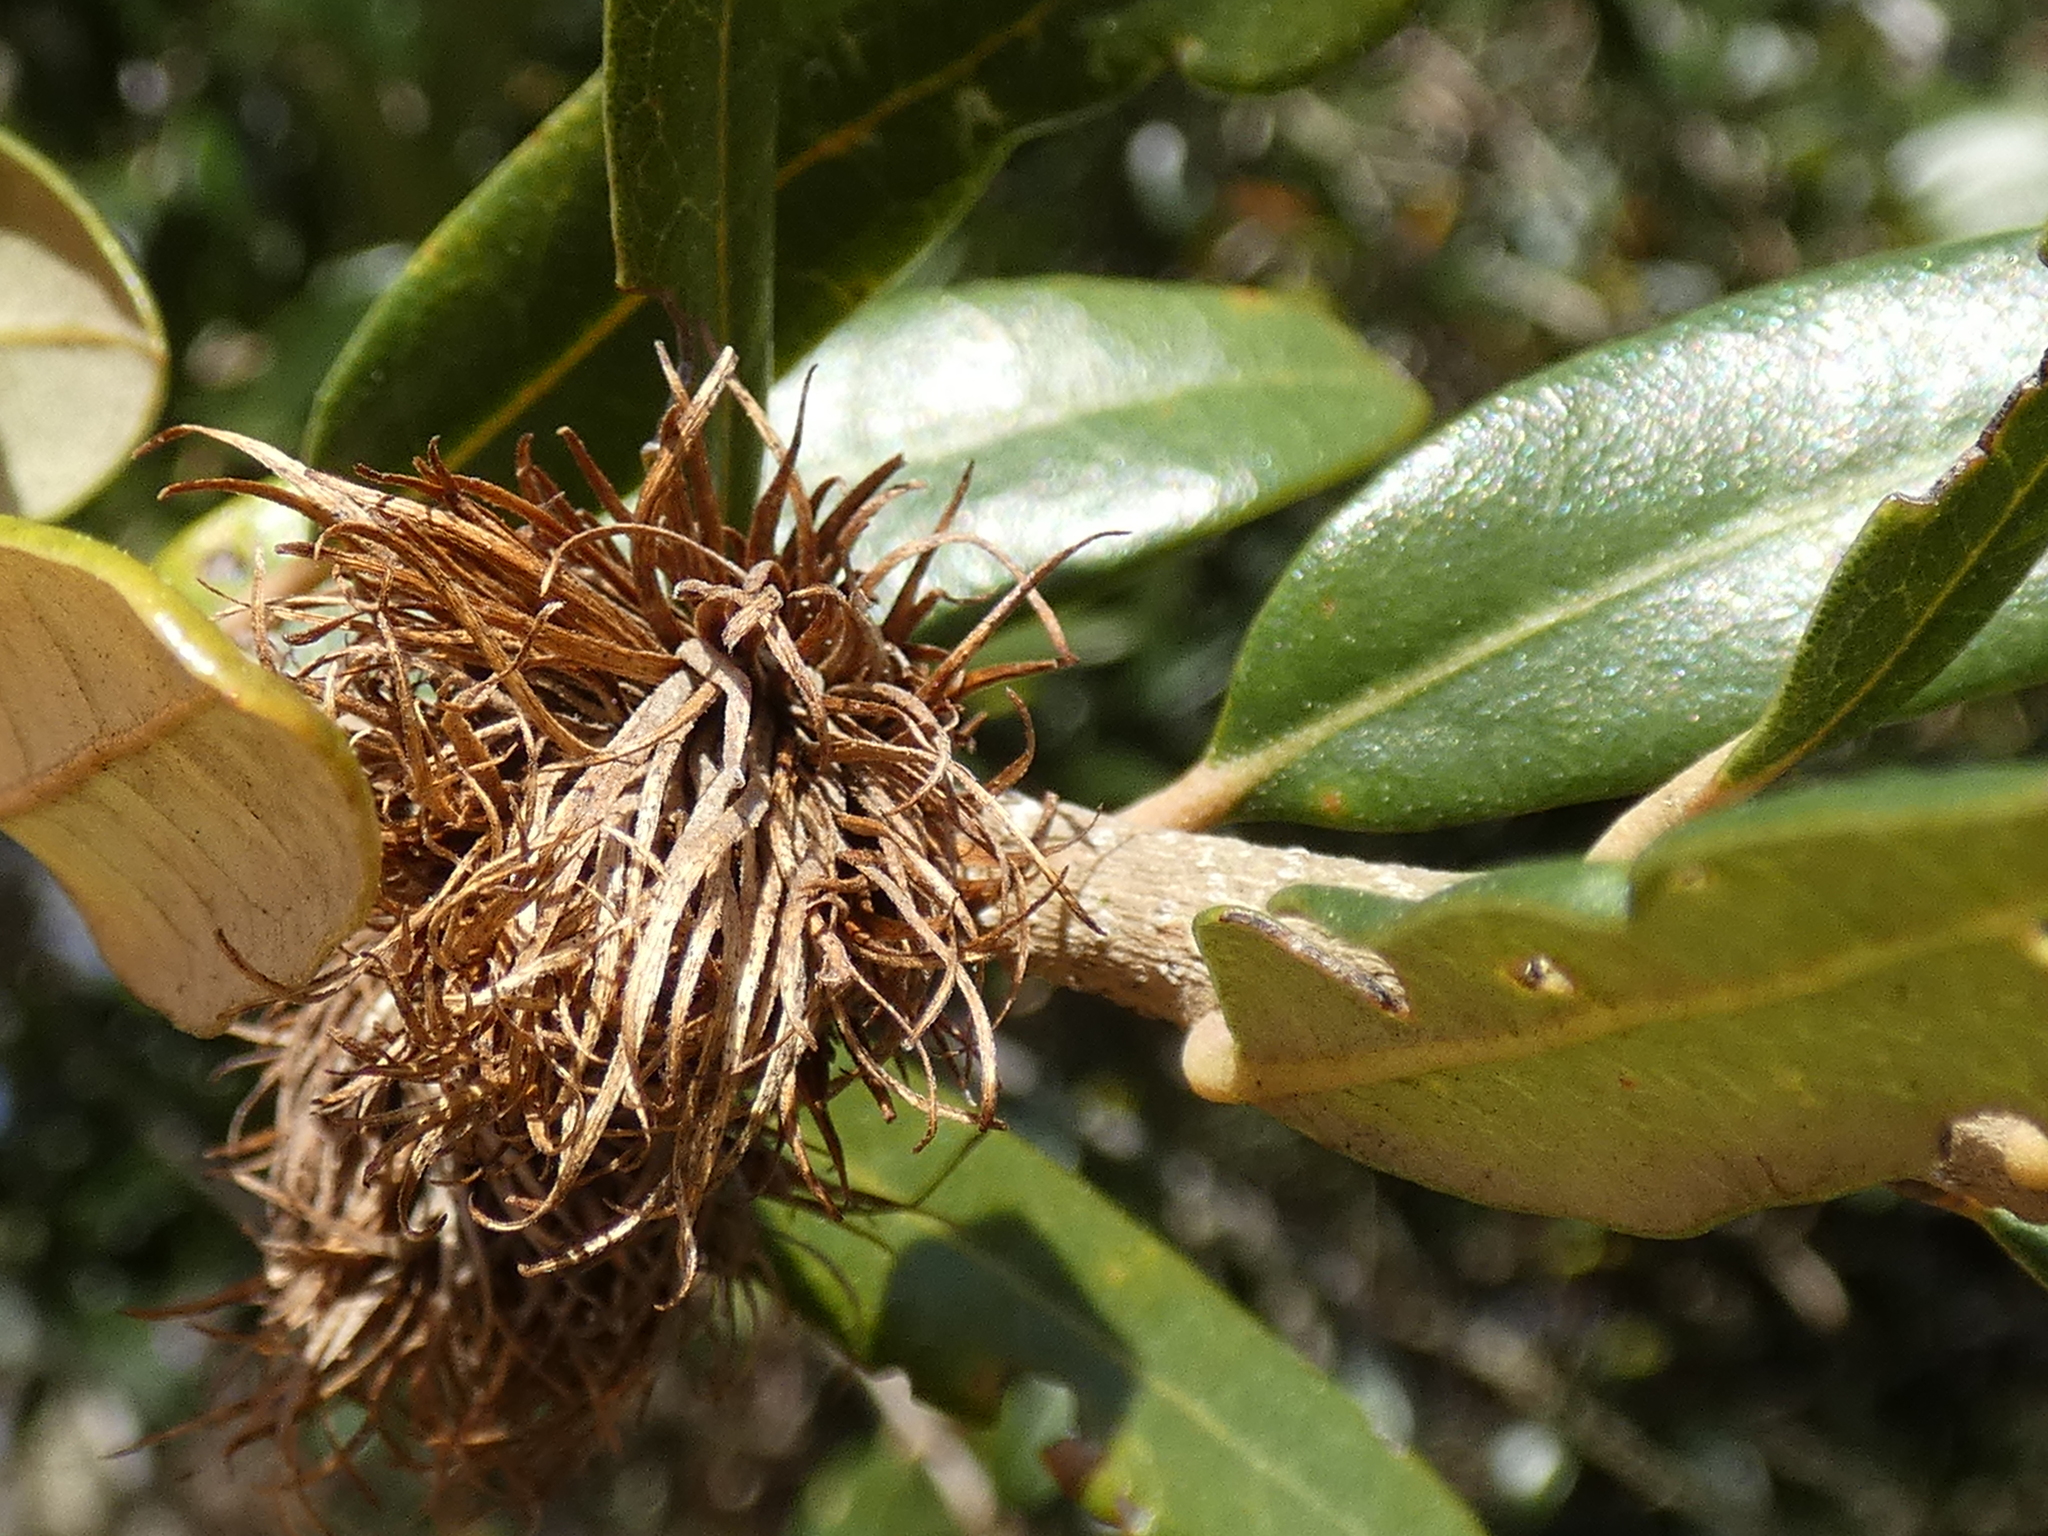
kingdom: Animalia
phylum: Arthropoda
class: Insecta
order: Hymenoptera
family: Cynipidae
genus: Andricus
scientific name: Andricus quercusfoliatus
